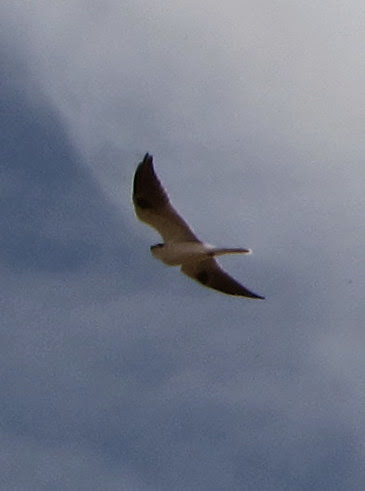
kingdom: Animalia
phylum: Chordata
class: Aves
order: Accipitriformes
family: Accipitridae
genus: Elanus
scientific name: Elanus leucurus
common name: White-tailed kite
